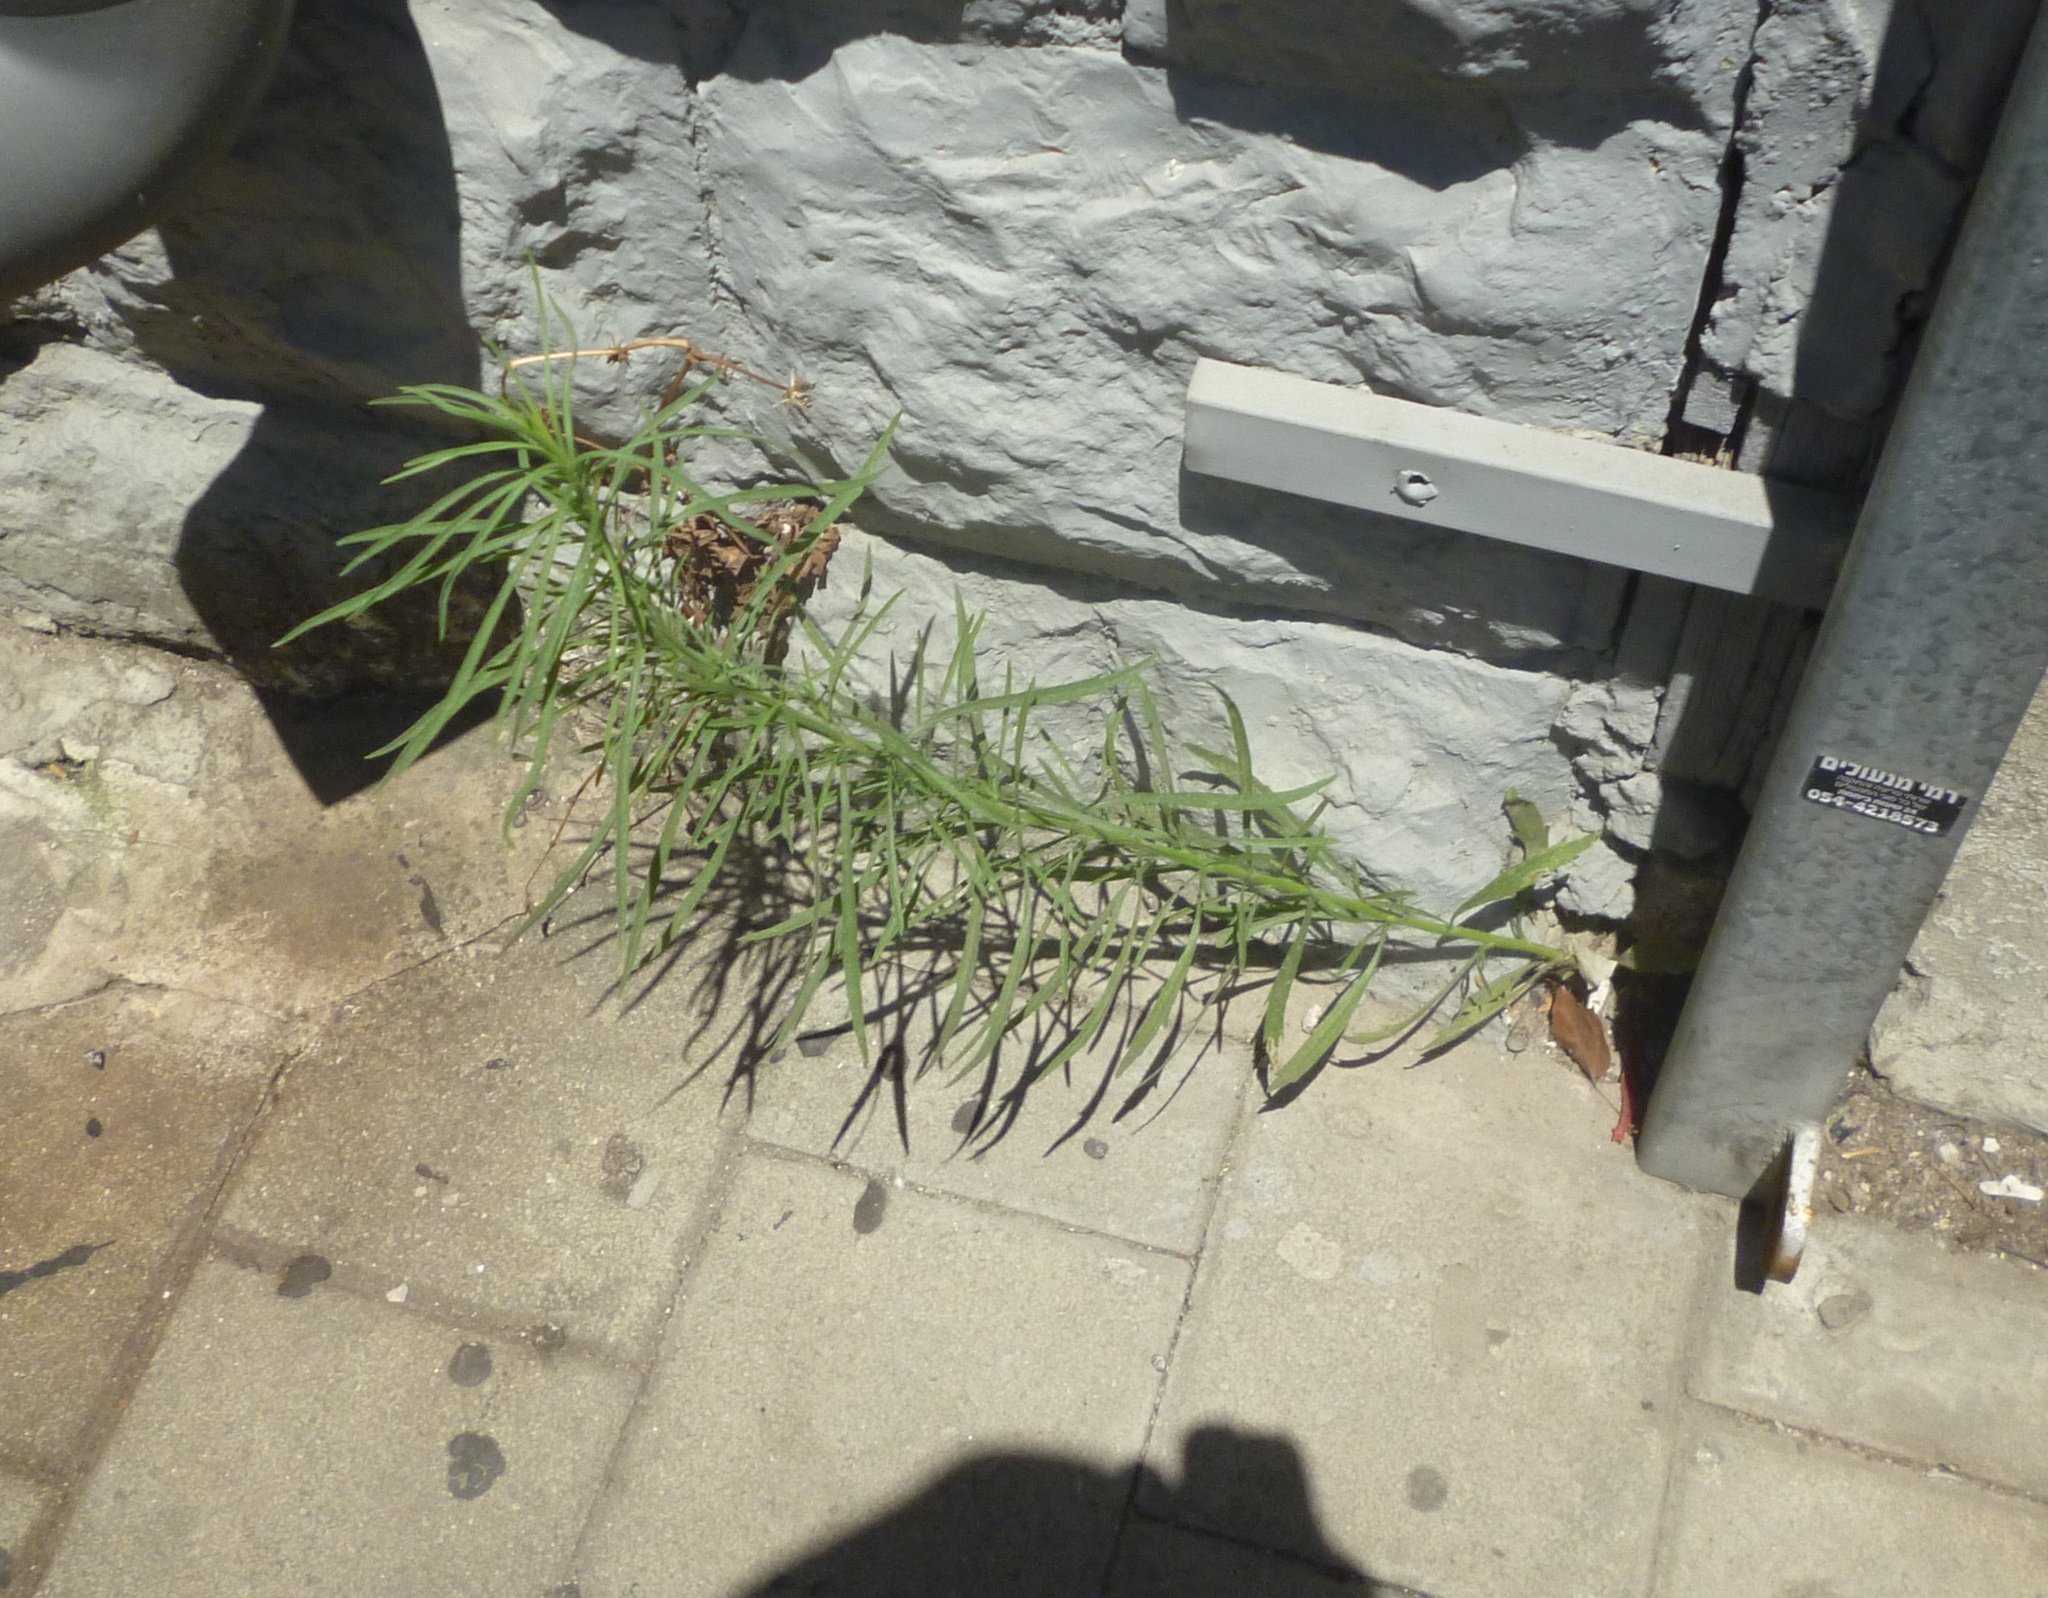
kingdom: Plantae
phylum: Tracheophyta
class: Magnoliopsida
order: Asterales
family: Asteraceae
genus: Erigeron
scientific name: Erigeron canadensis
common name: Canadian fleabane
